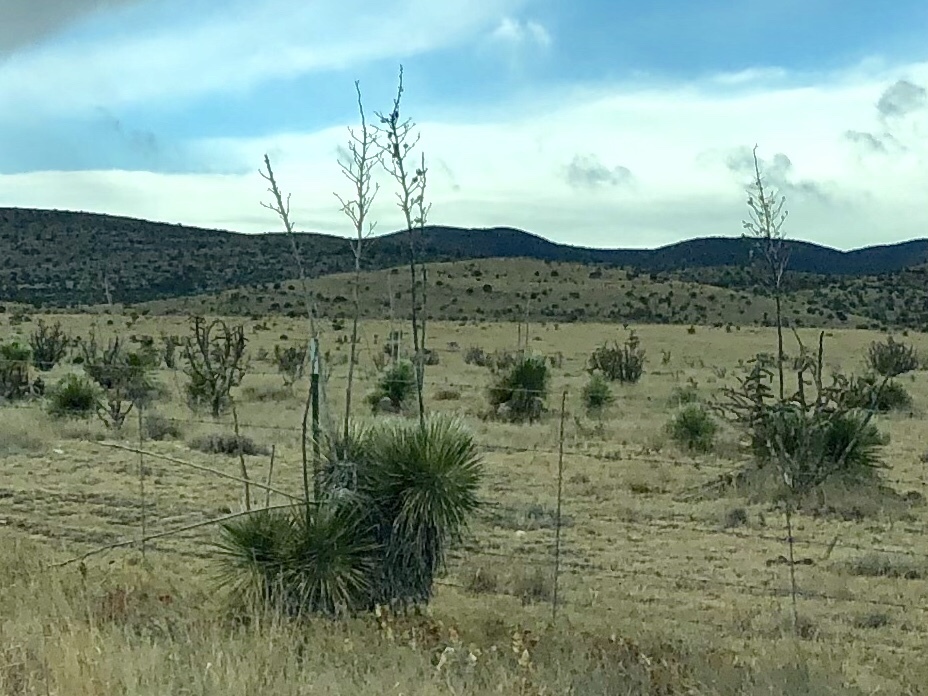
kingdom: Plantae
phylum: Tracheophyta
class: Liliopsida
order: Asparagales
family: Asparagaceae
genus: Yucca
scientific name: Yucca elata
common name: Palmella
